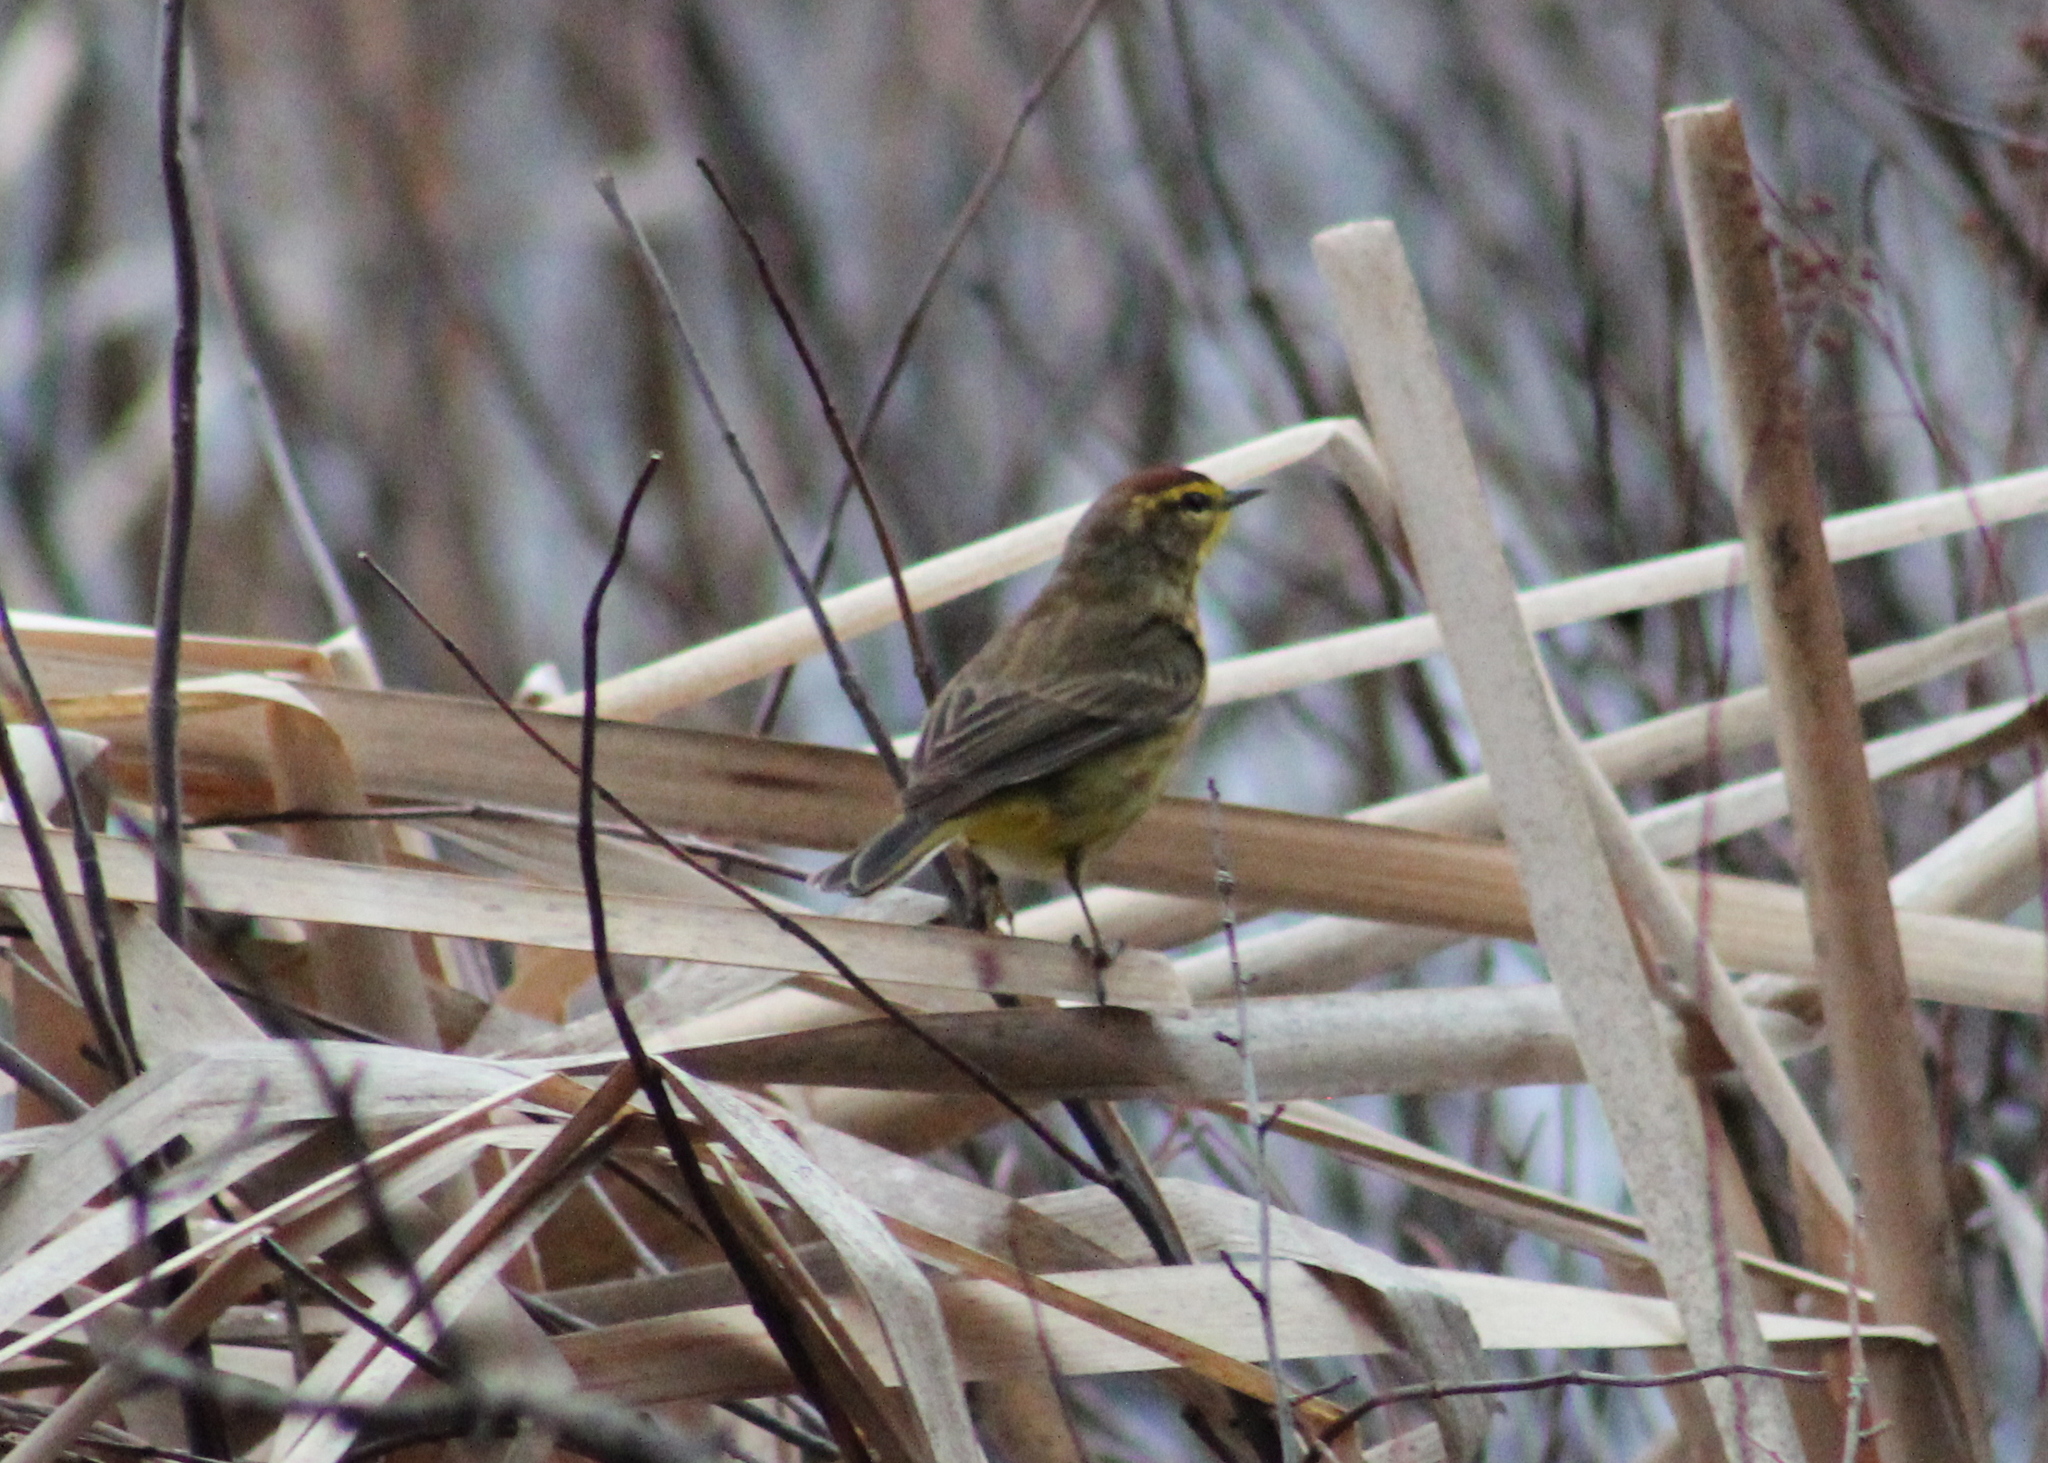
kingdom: Animalia
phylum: Chordata
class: Aves
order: Passeriformes
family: Parulidae
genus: Setophaga
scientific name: Setophaga palmarum
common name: Palm warbler
